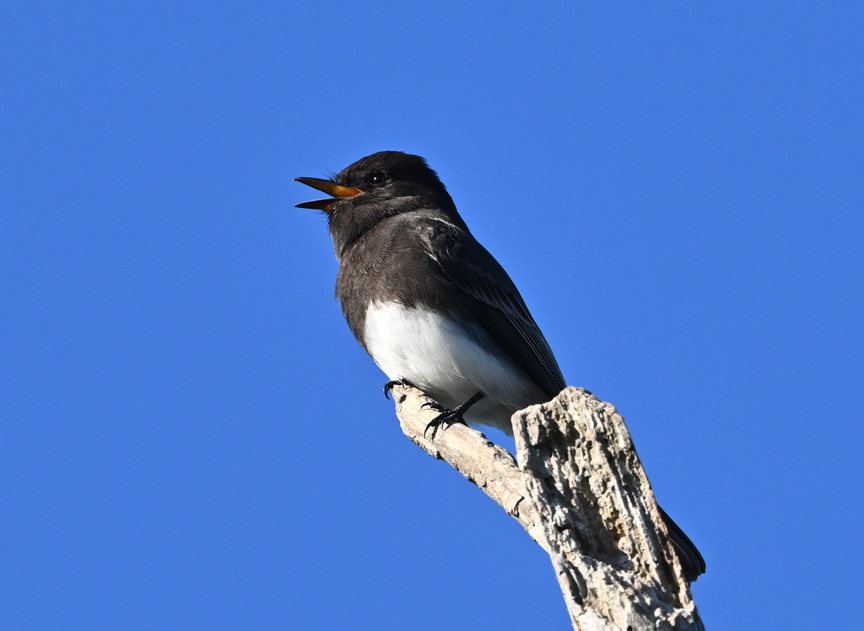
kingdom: Animalia
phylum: Chordata
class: Aves
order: Passeriformes
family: Tyrannidae
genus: Sayornis
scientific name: Sayornis nigricans
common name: Black phoebe
